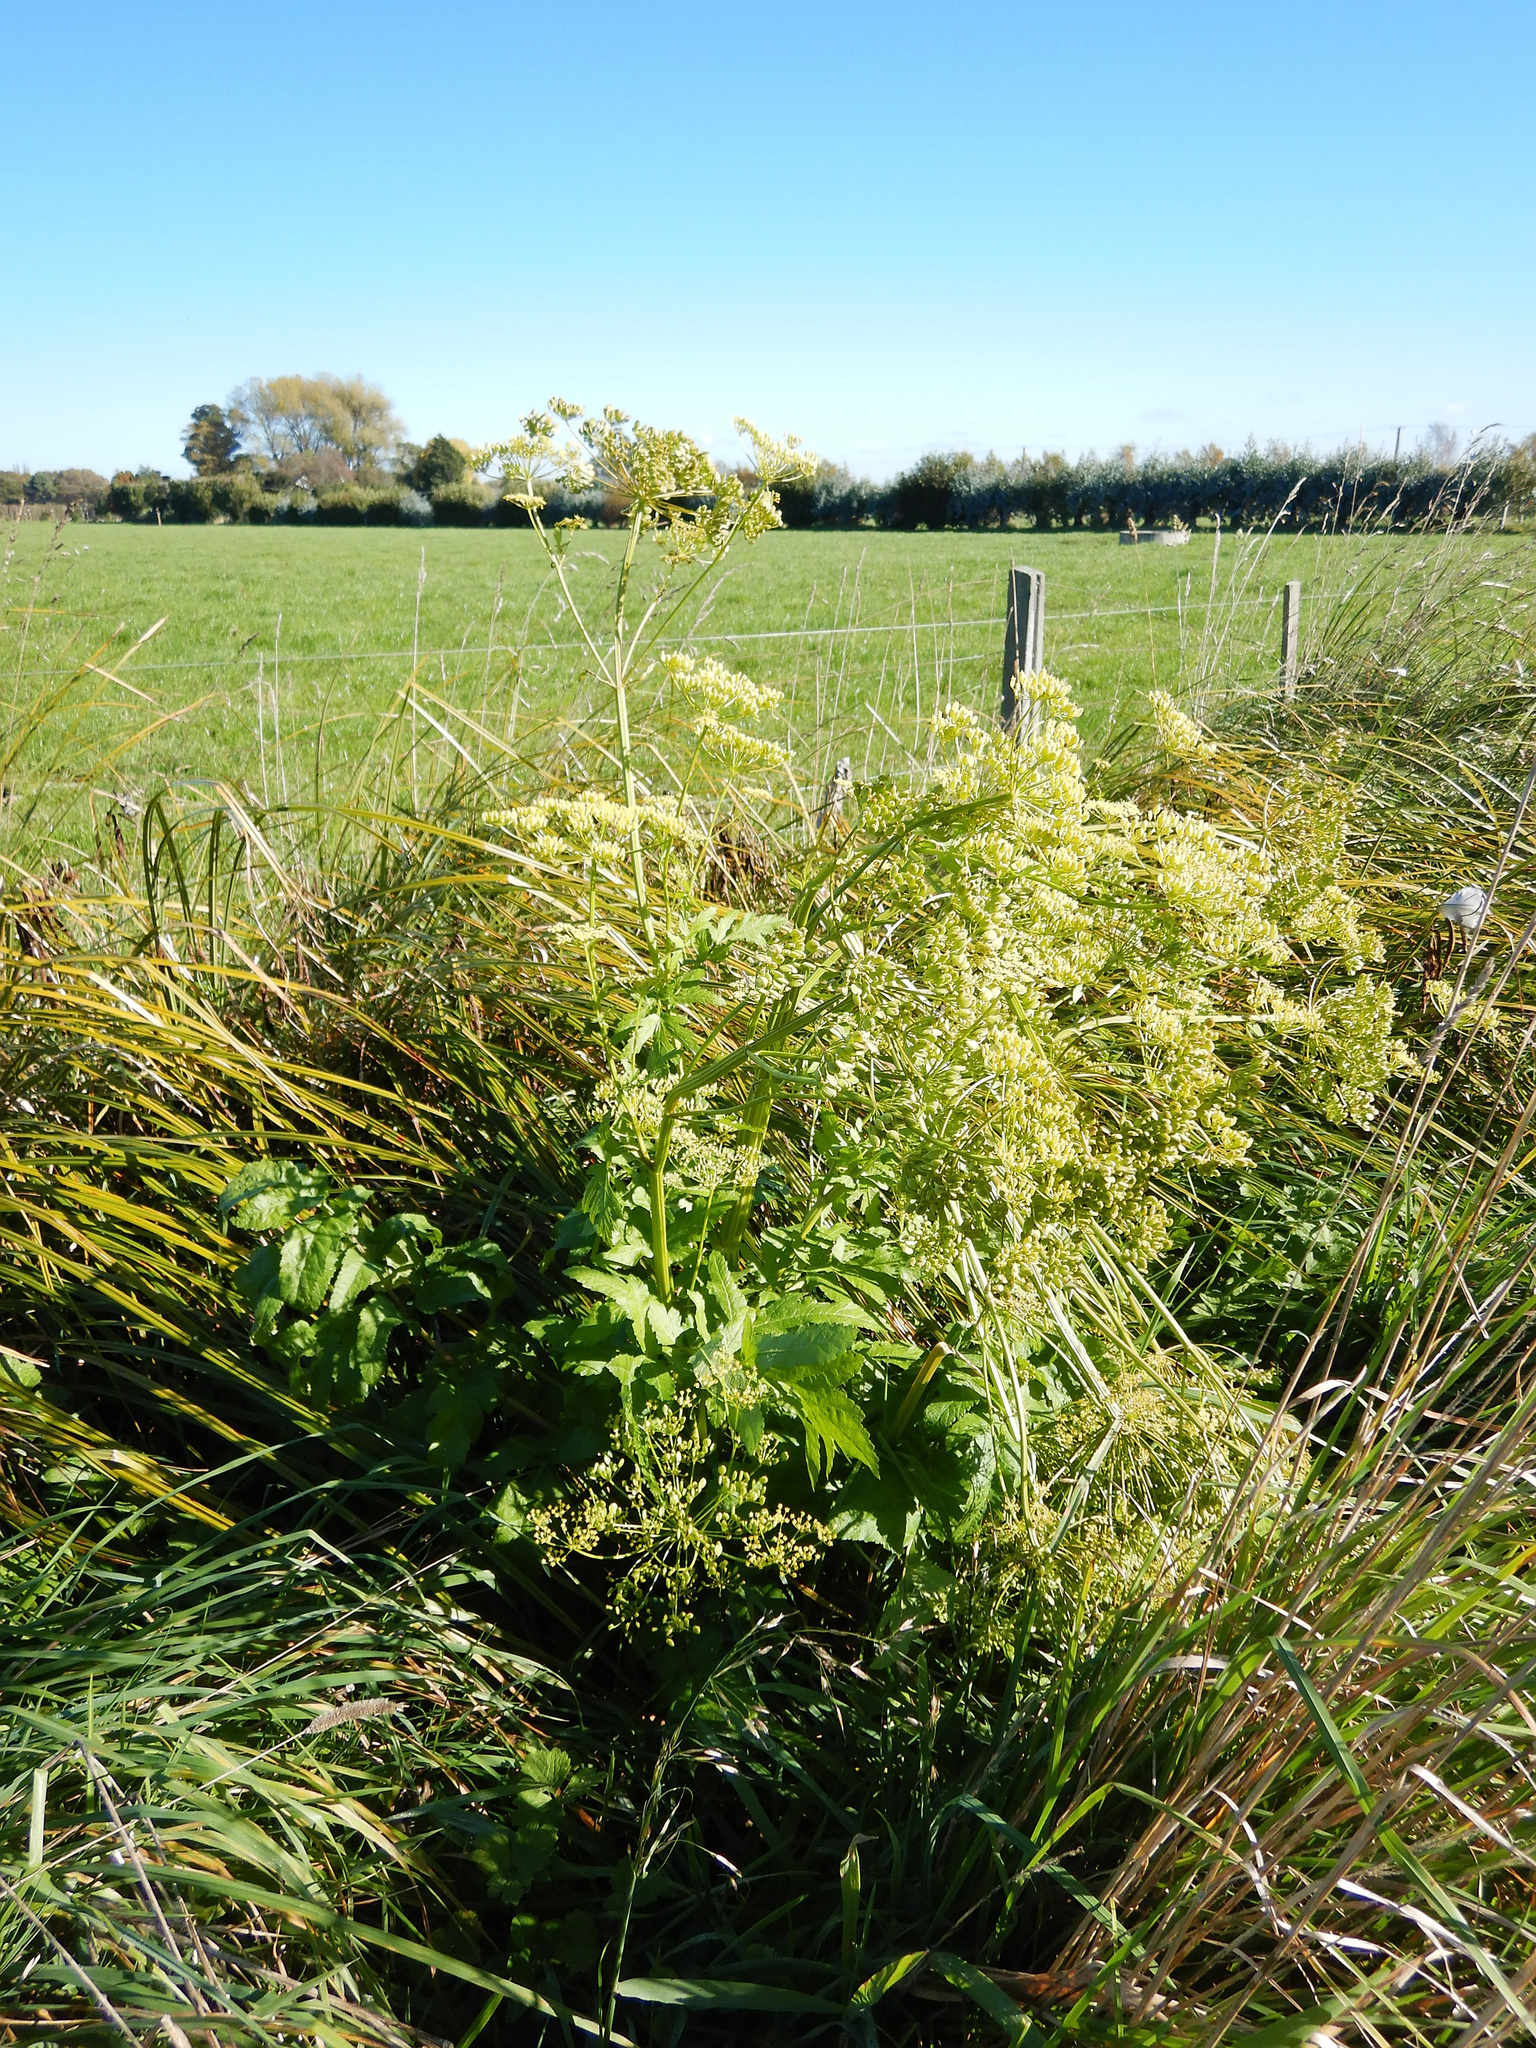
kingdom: Plantae
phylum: Tracheophyta
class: Magnoliopsida
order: Apiales
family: Apiaceae
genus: Pastinaca
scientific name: Pastinaca sativa
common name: Wild parsnip
